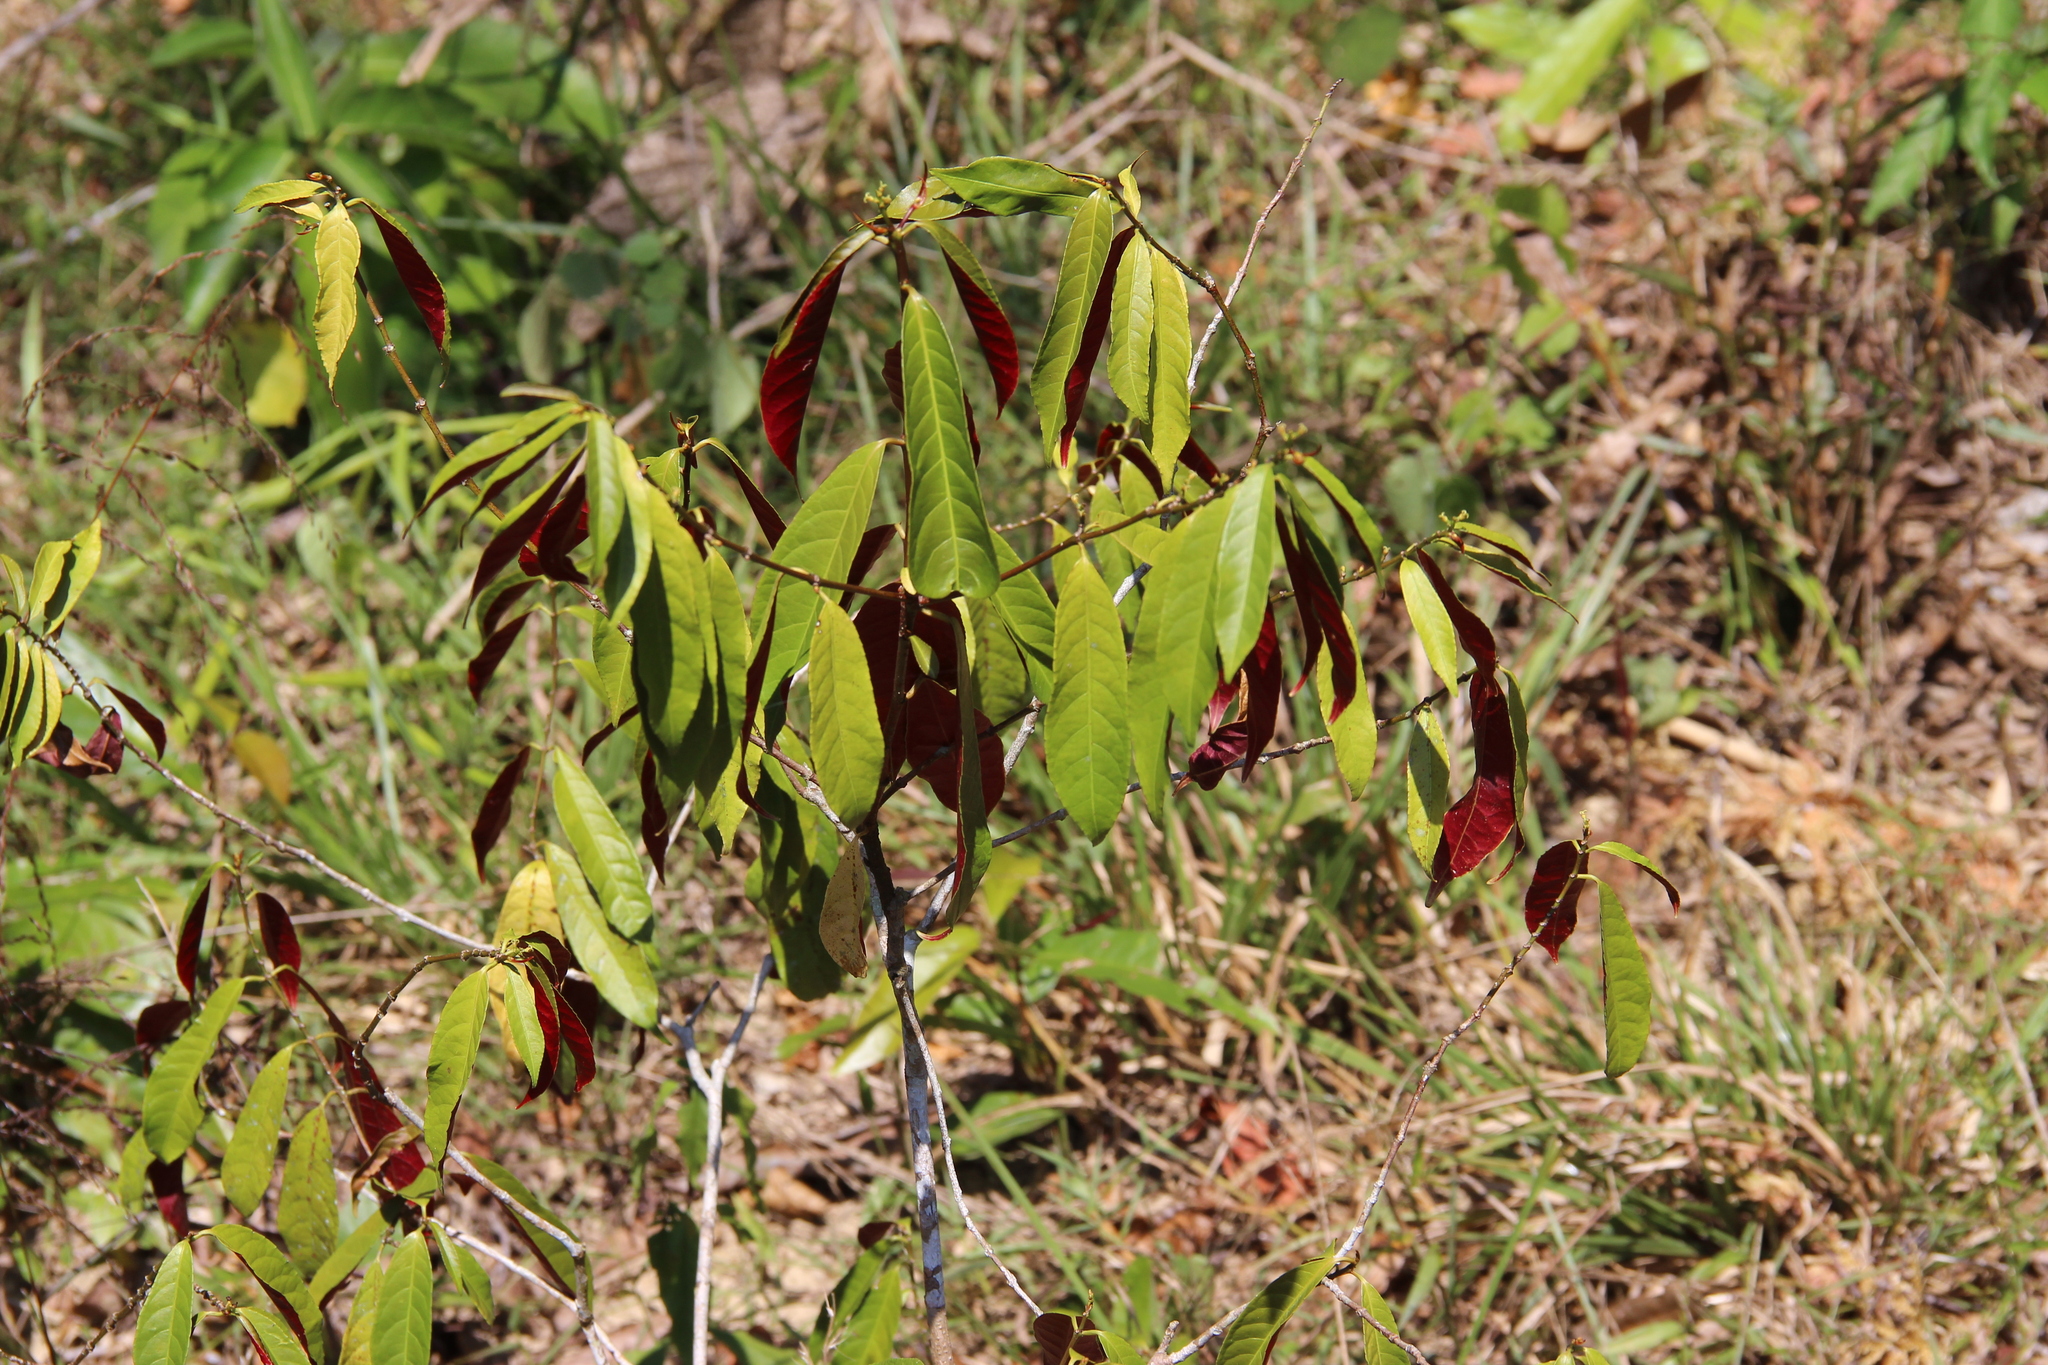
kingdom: Plantae
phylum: Tracheophyta
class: Magnoliopsida
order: Malpighiales
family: Euphorbiaceae
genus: Excoecaria
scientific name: Excoecaria cochinchinensis
